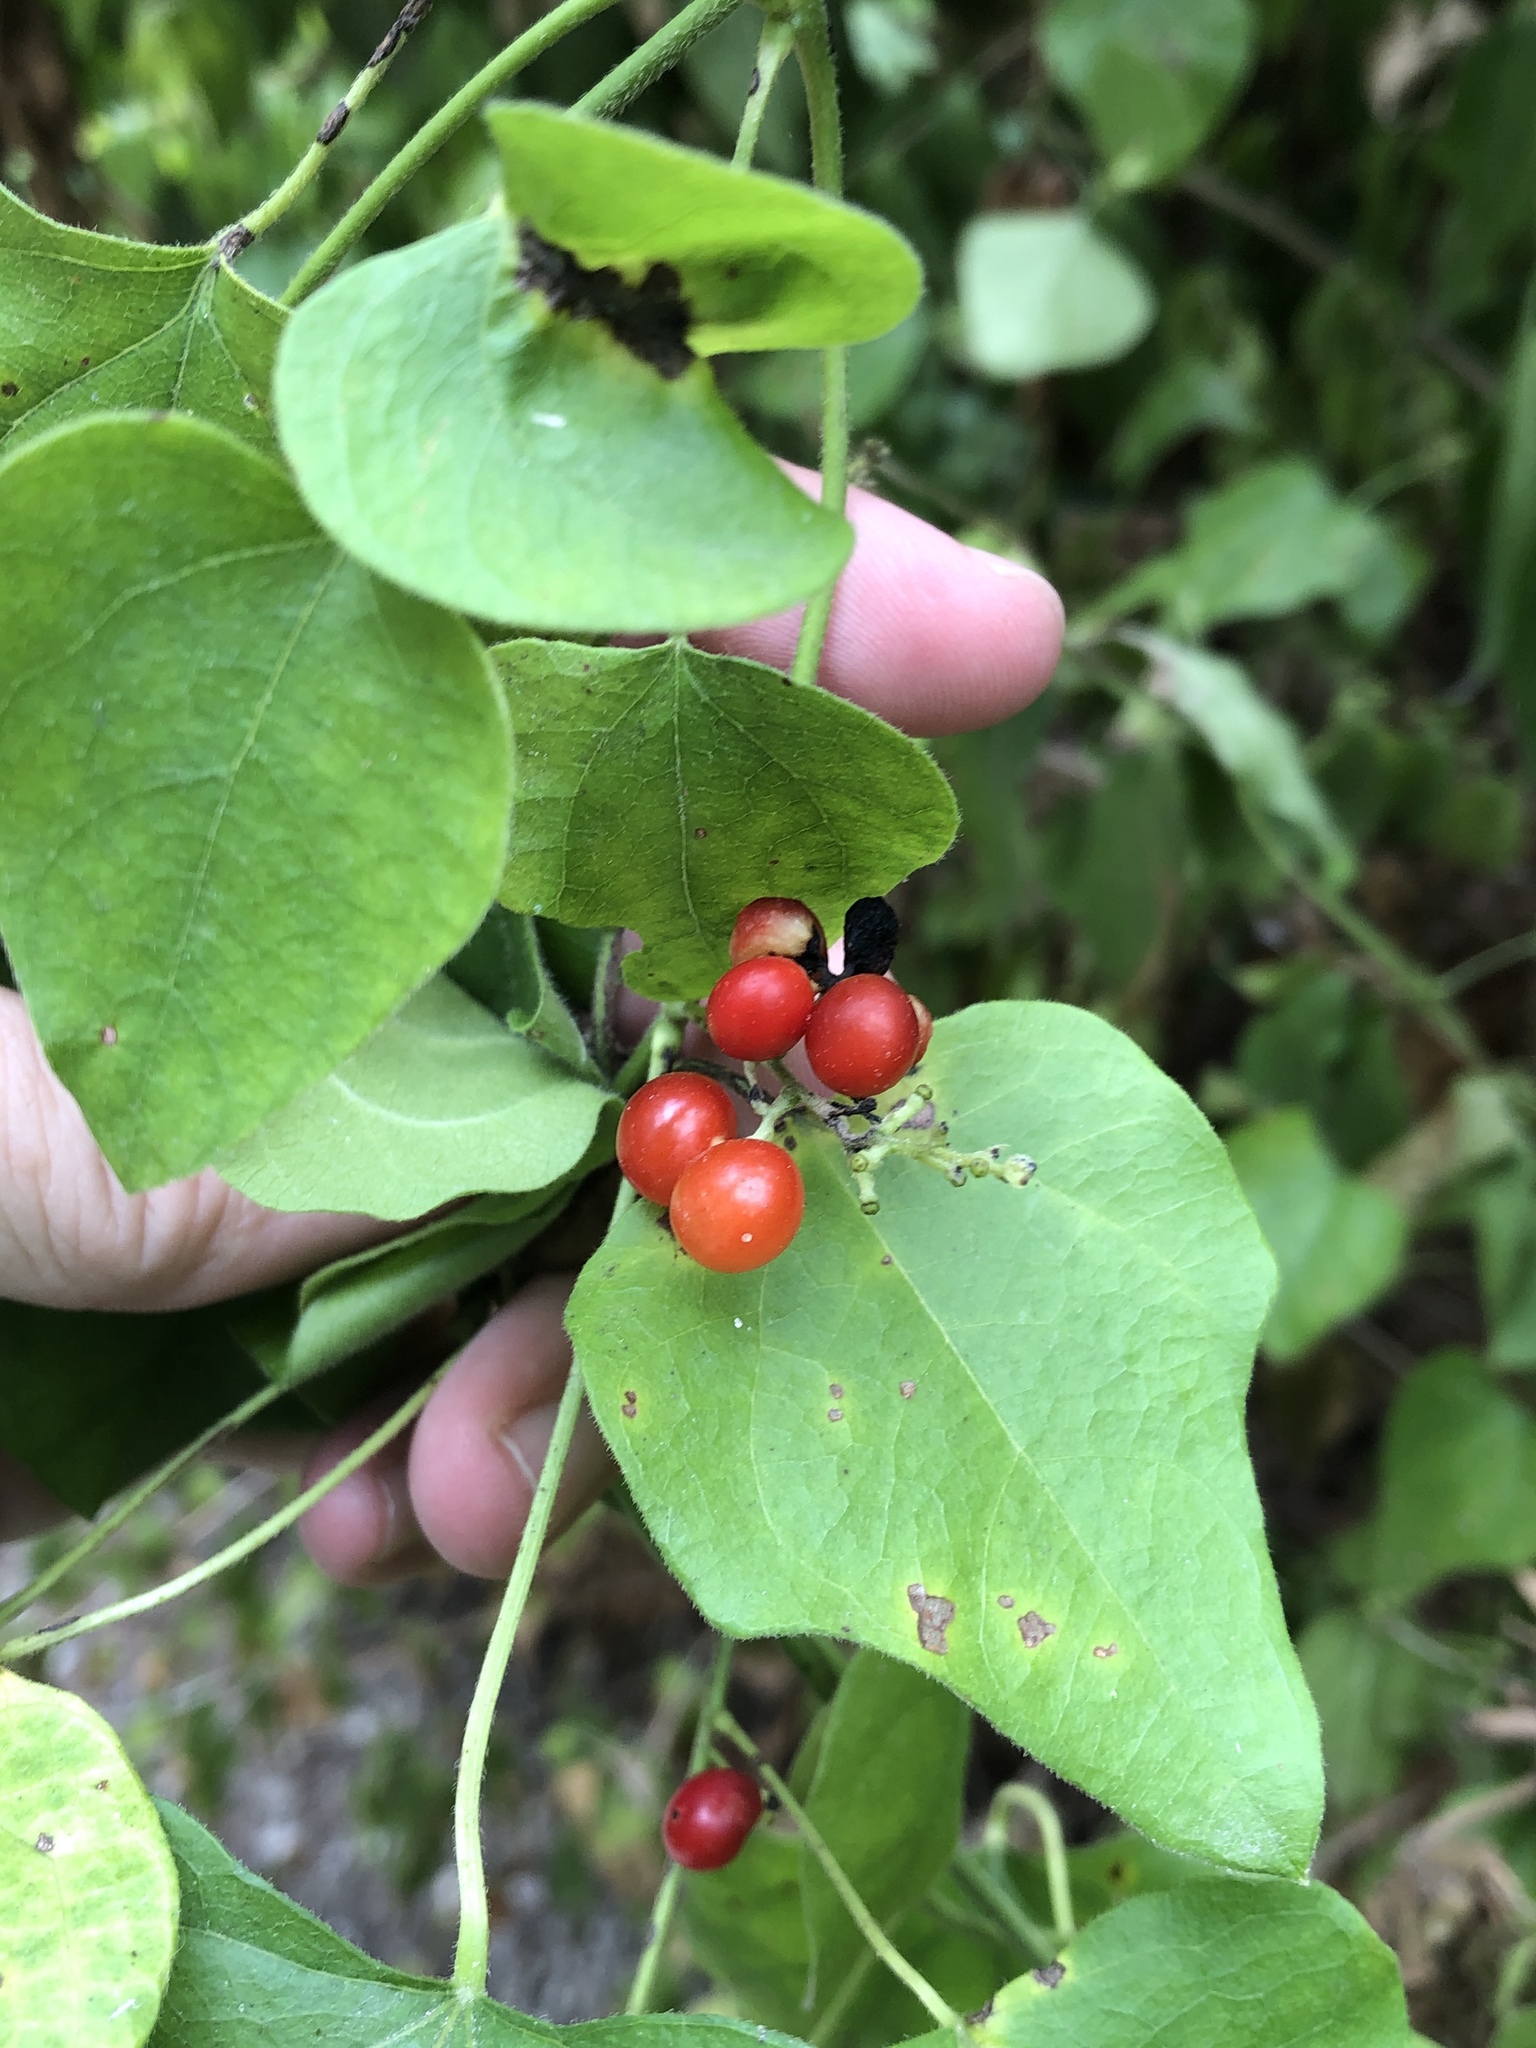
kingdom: Plantae
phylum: Tracheophyta
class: Magnoliopsida
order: Ranunculales
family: Menispermaceae
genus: Cocculus
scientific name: Cocculus carolinus
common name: Carolina moonseed
